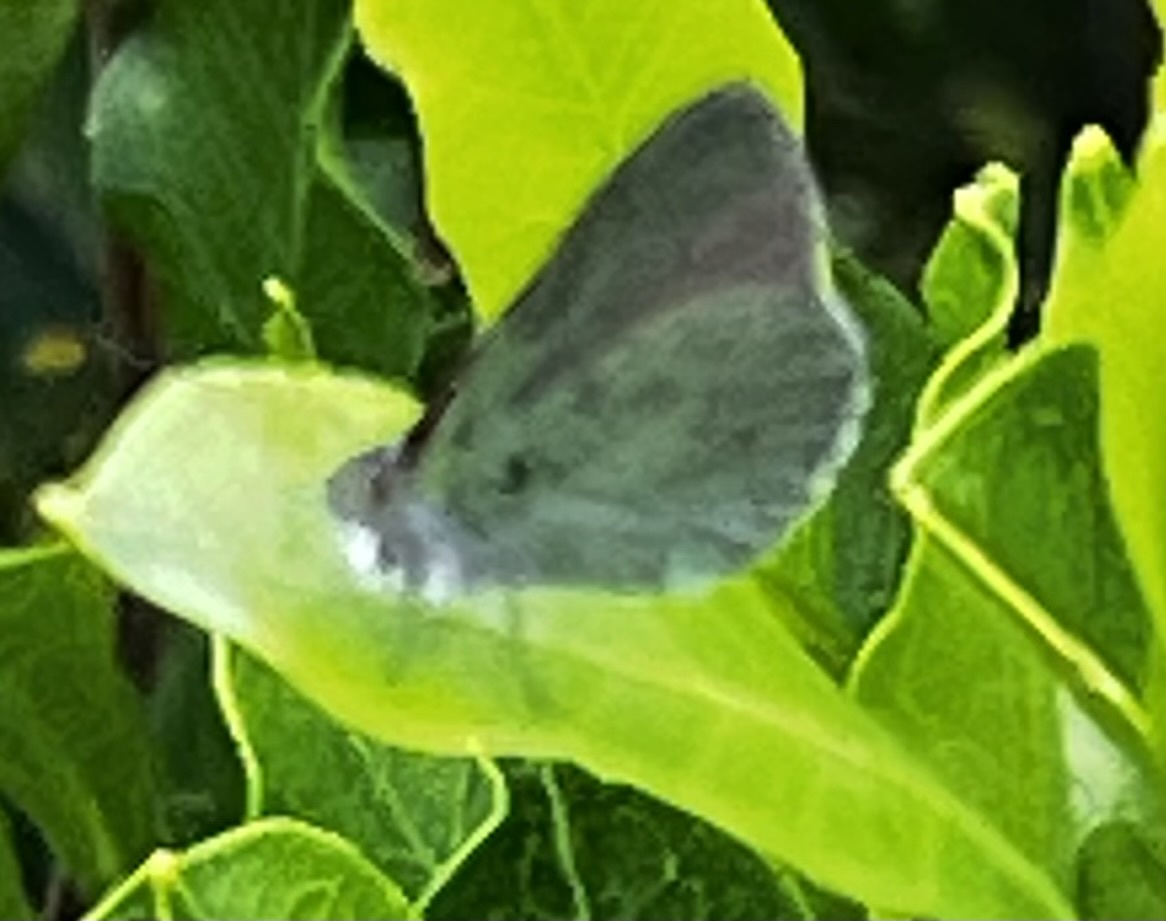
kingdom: Animalia
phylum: Arthropoda
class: Insecta
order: Lepidoptera
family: Lycaenidae
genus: Udara
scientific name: Udara blackburni
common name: Blackburn's blue
